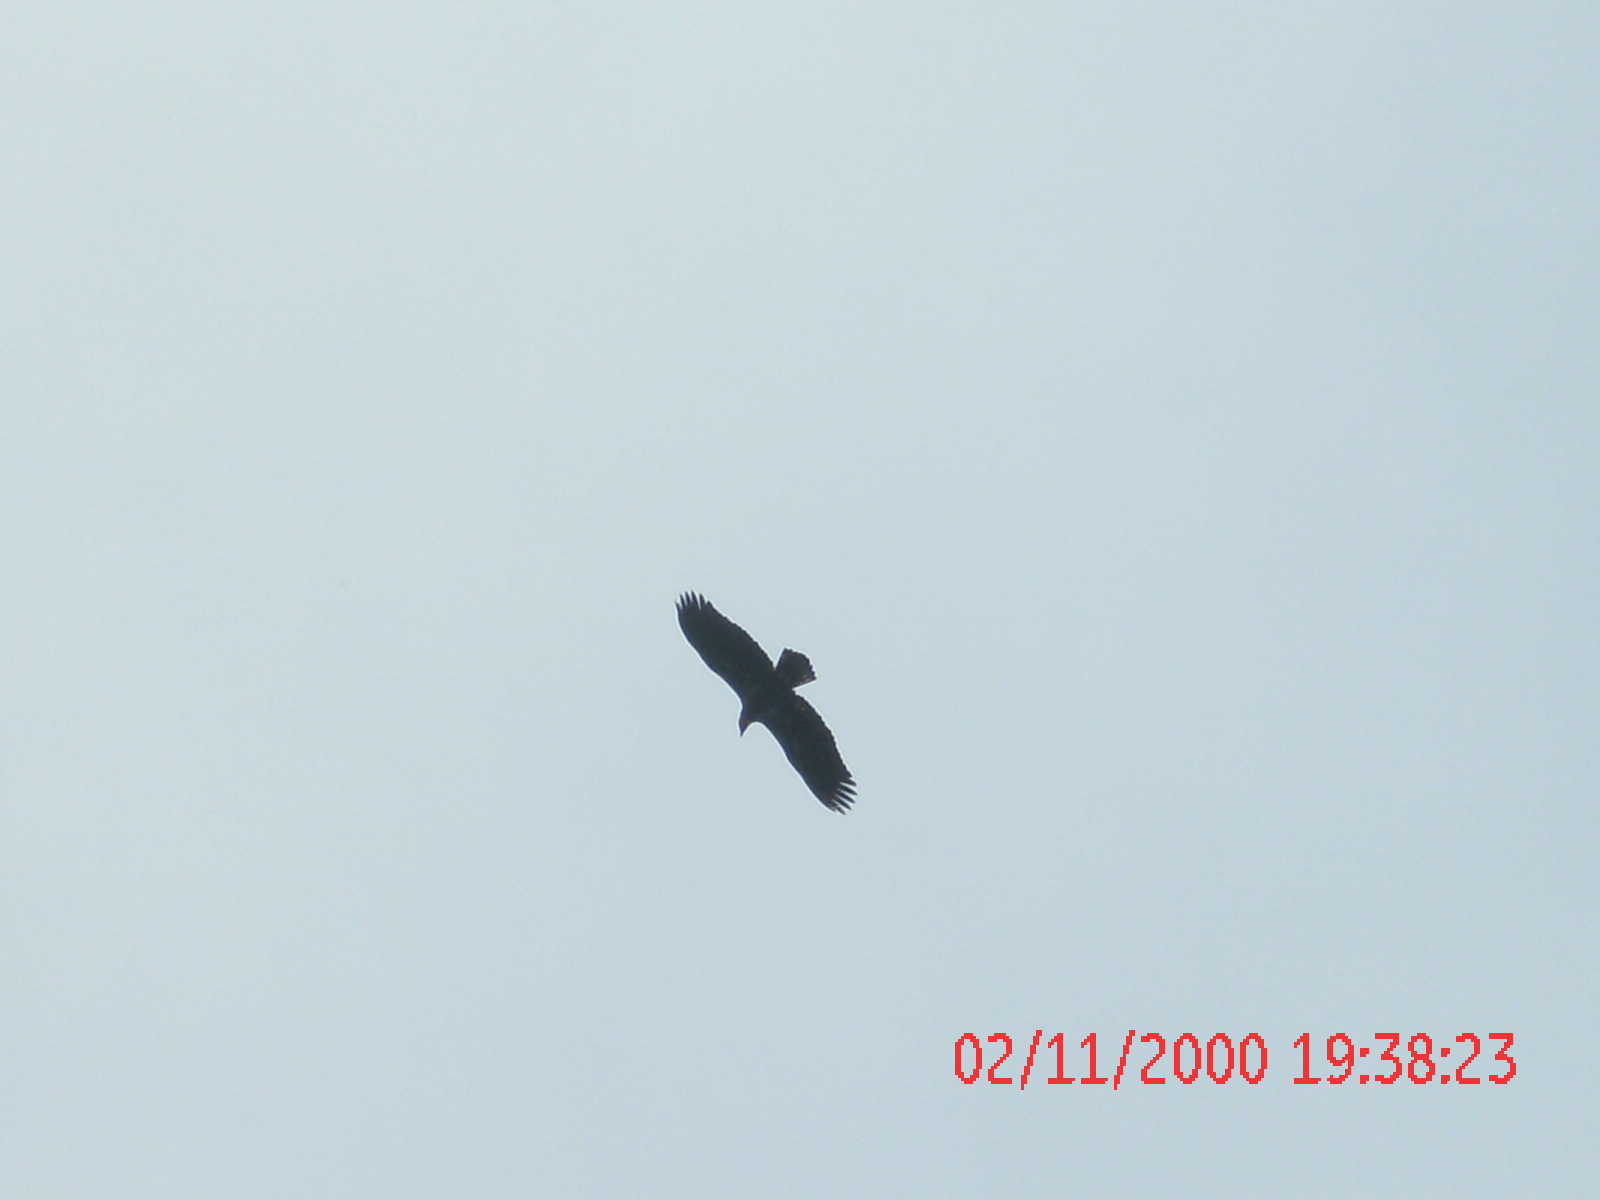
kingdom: Animalia
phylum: Chordata
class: Aves
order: Accipitriformes
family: Accipitridae
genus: Haliaeetus
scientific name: Haliaeetus leucocephalus
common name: Bald eagle
